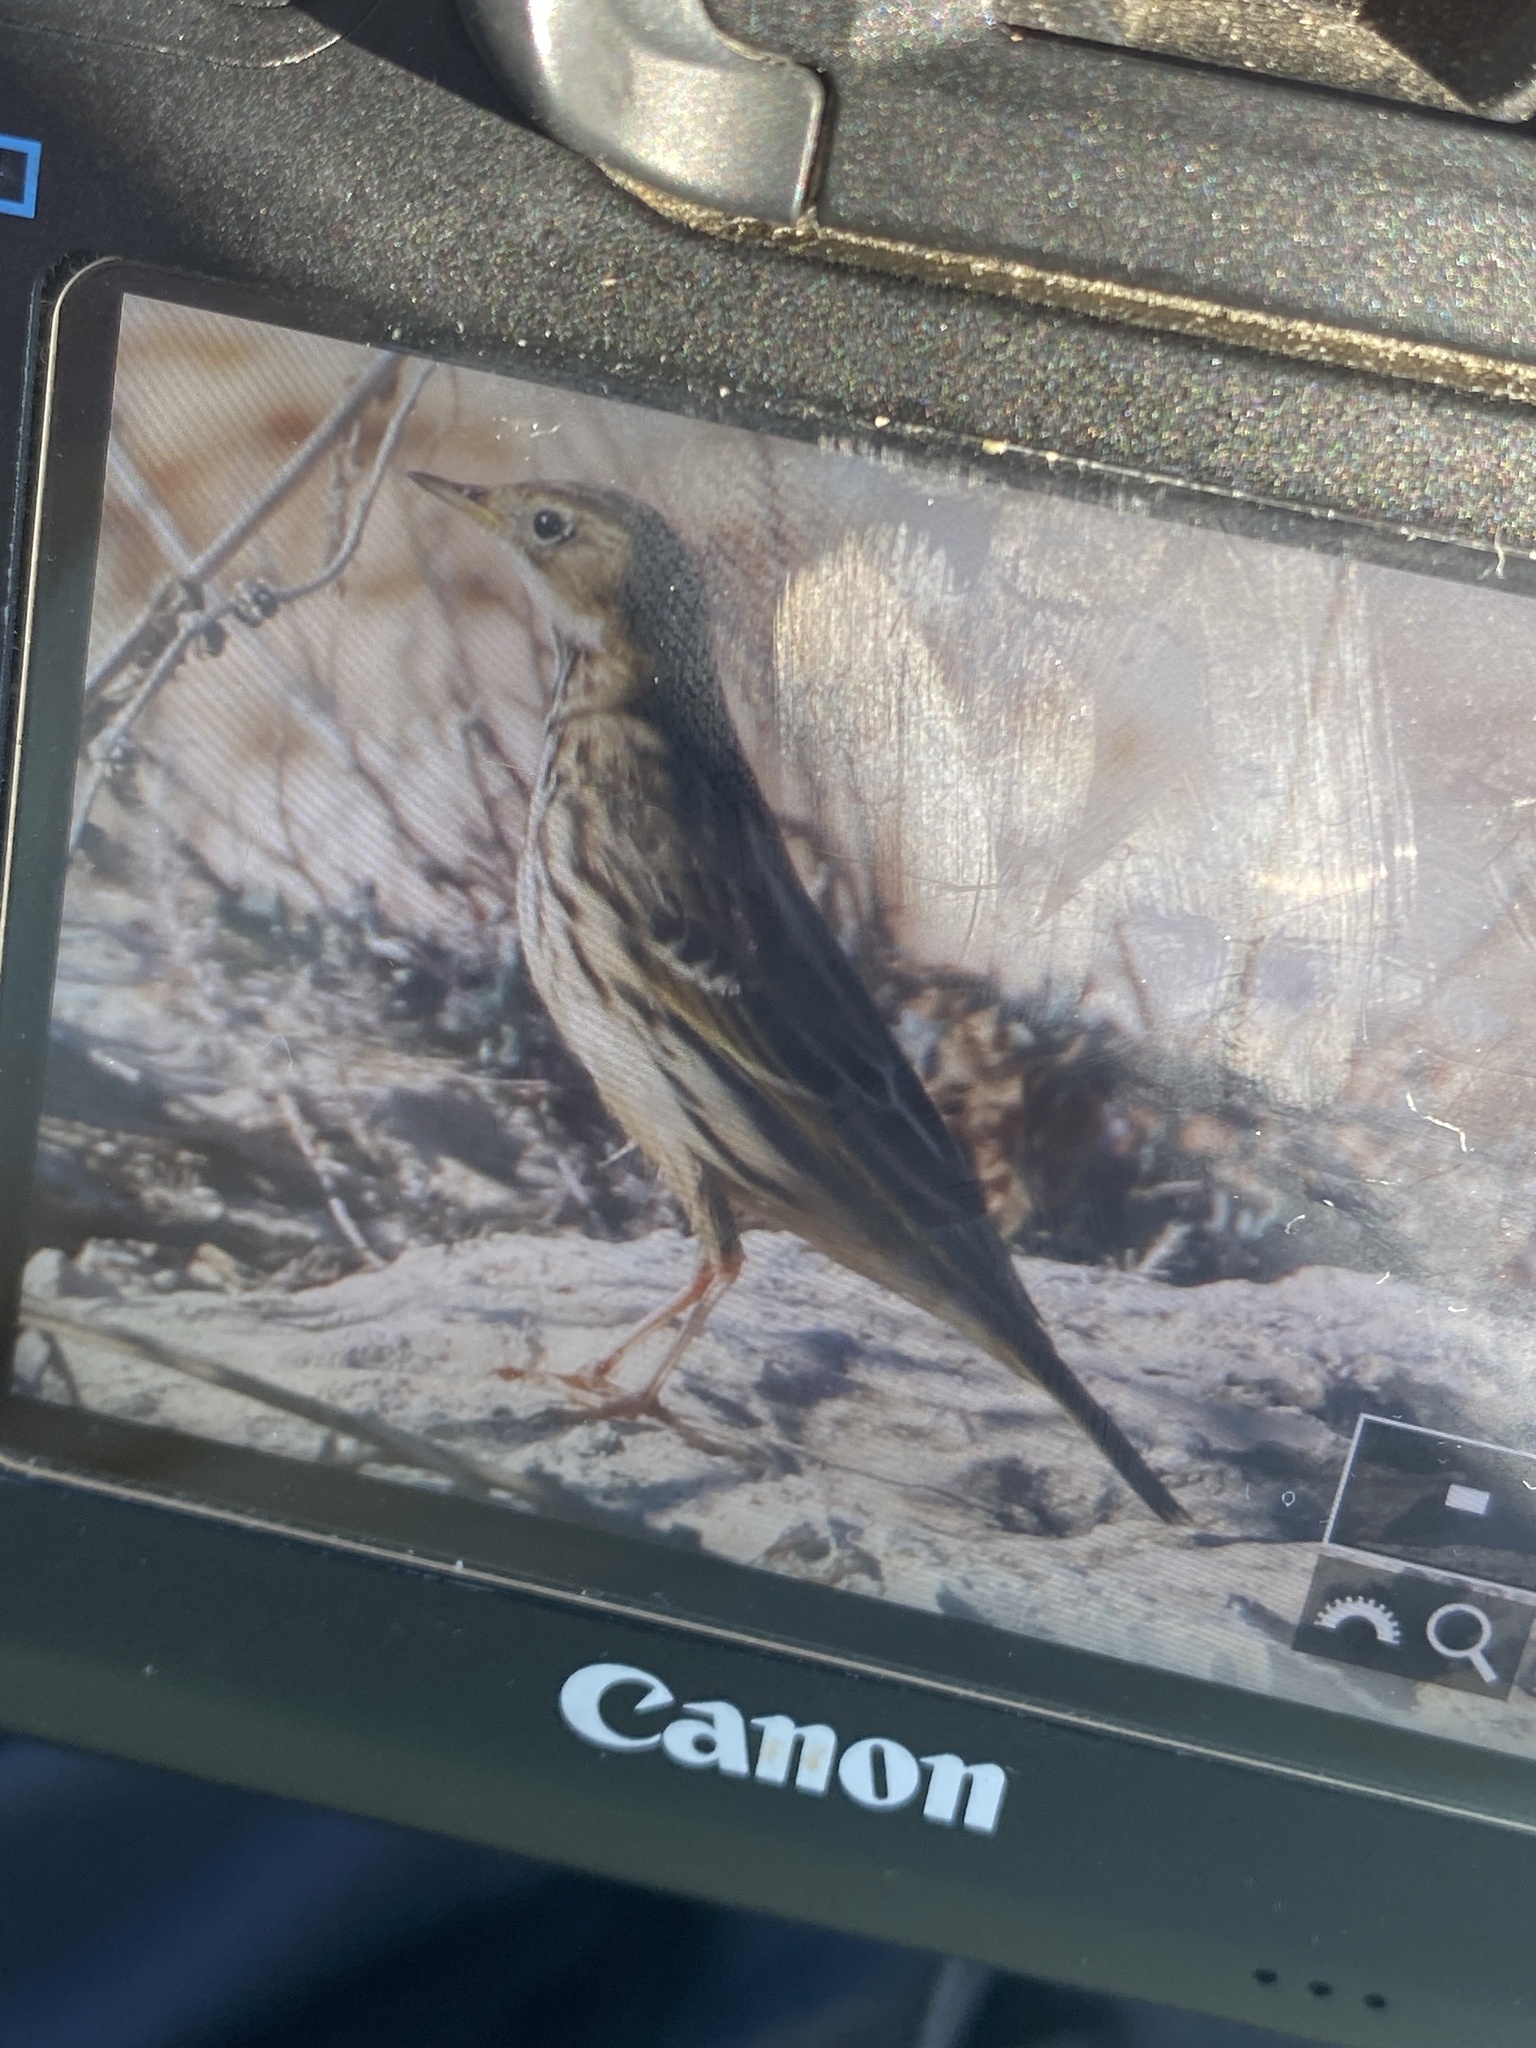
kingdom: Animalia
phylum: Chordata
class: Aves
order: Passeriformes
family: Motacillidae
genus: Anthus
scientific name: Anthus cervinus
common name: Red-throated pipit
